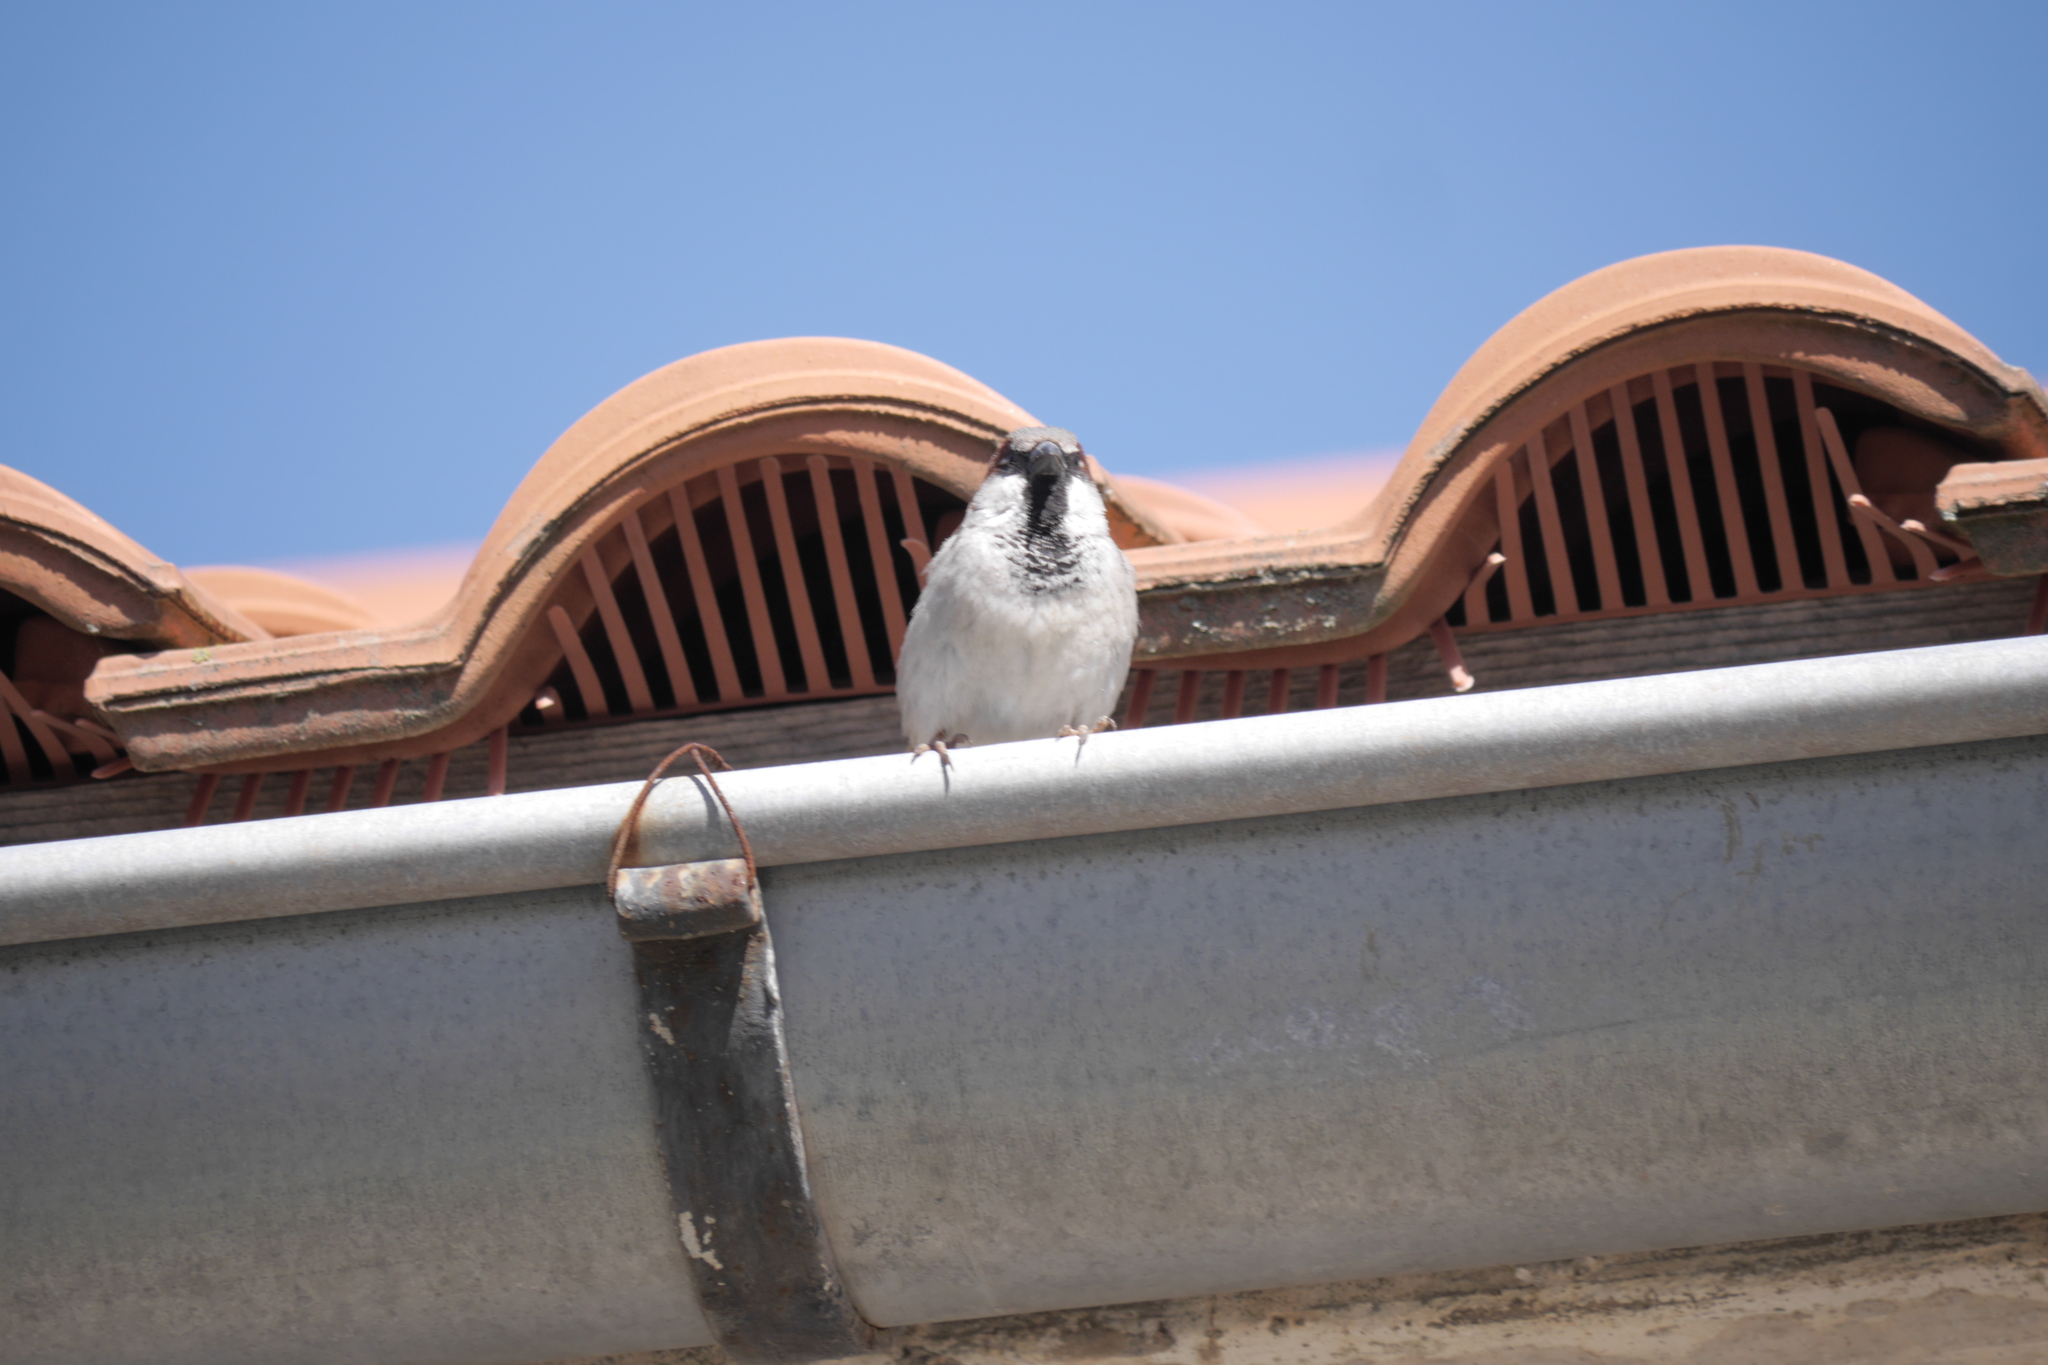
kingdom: Animalia
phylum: Chordata
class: Aves
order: Passeriformes
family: Passeridae
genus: Passer
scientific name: Passer domesticus
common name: House sparrow
